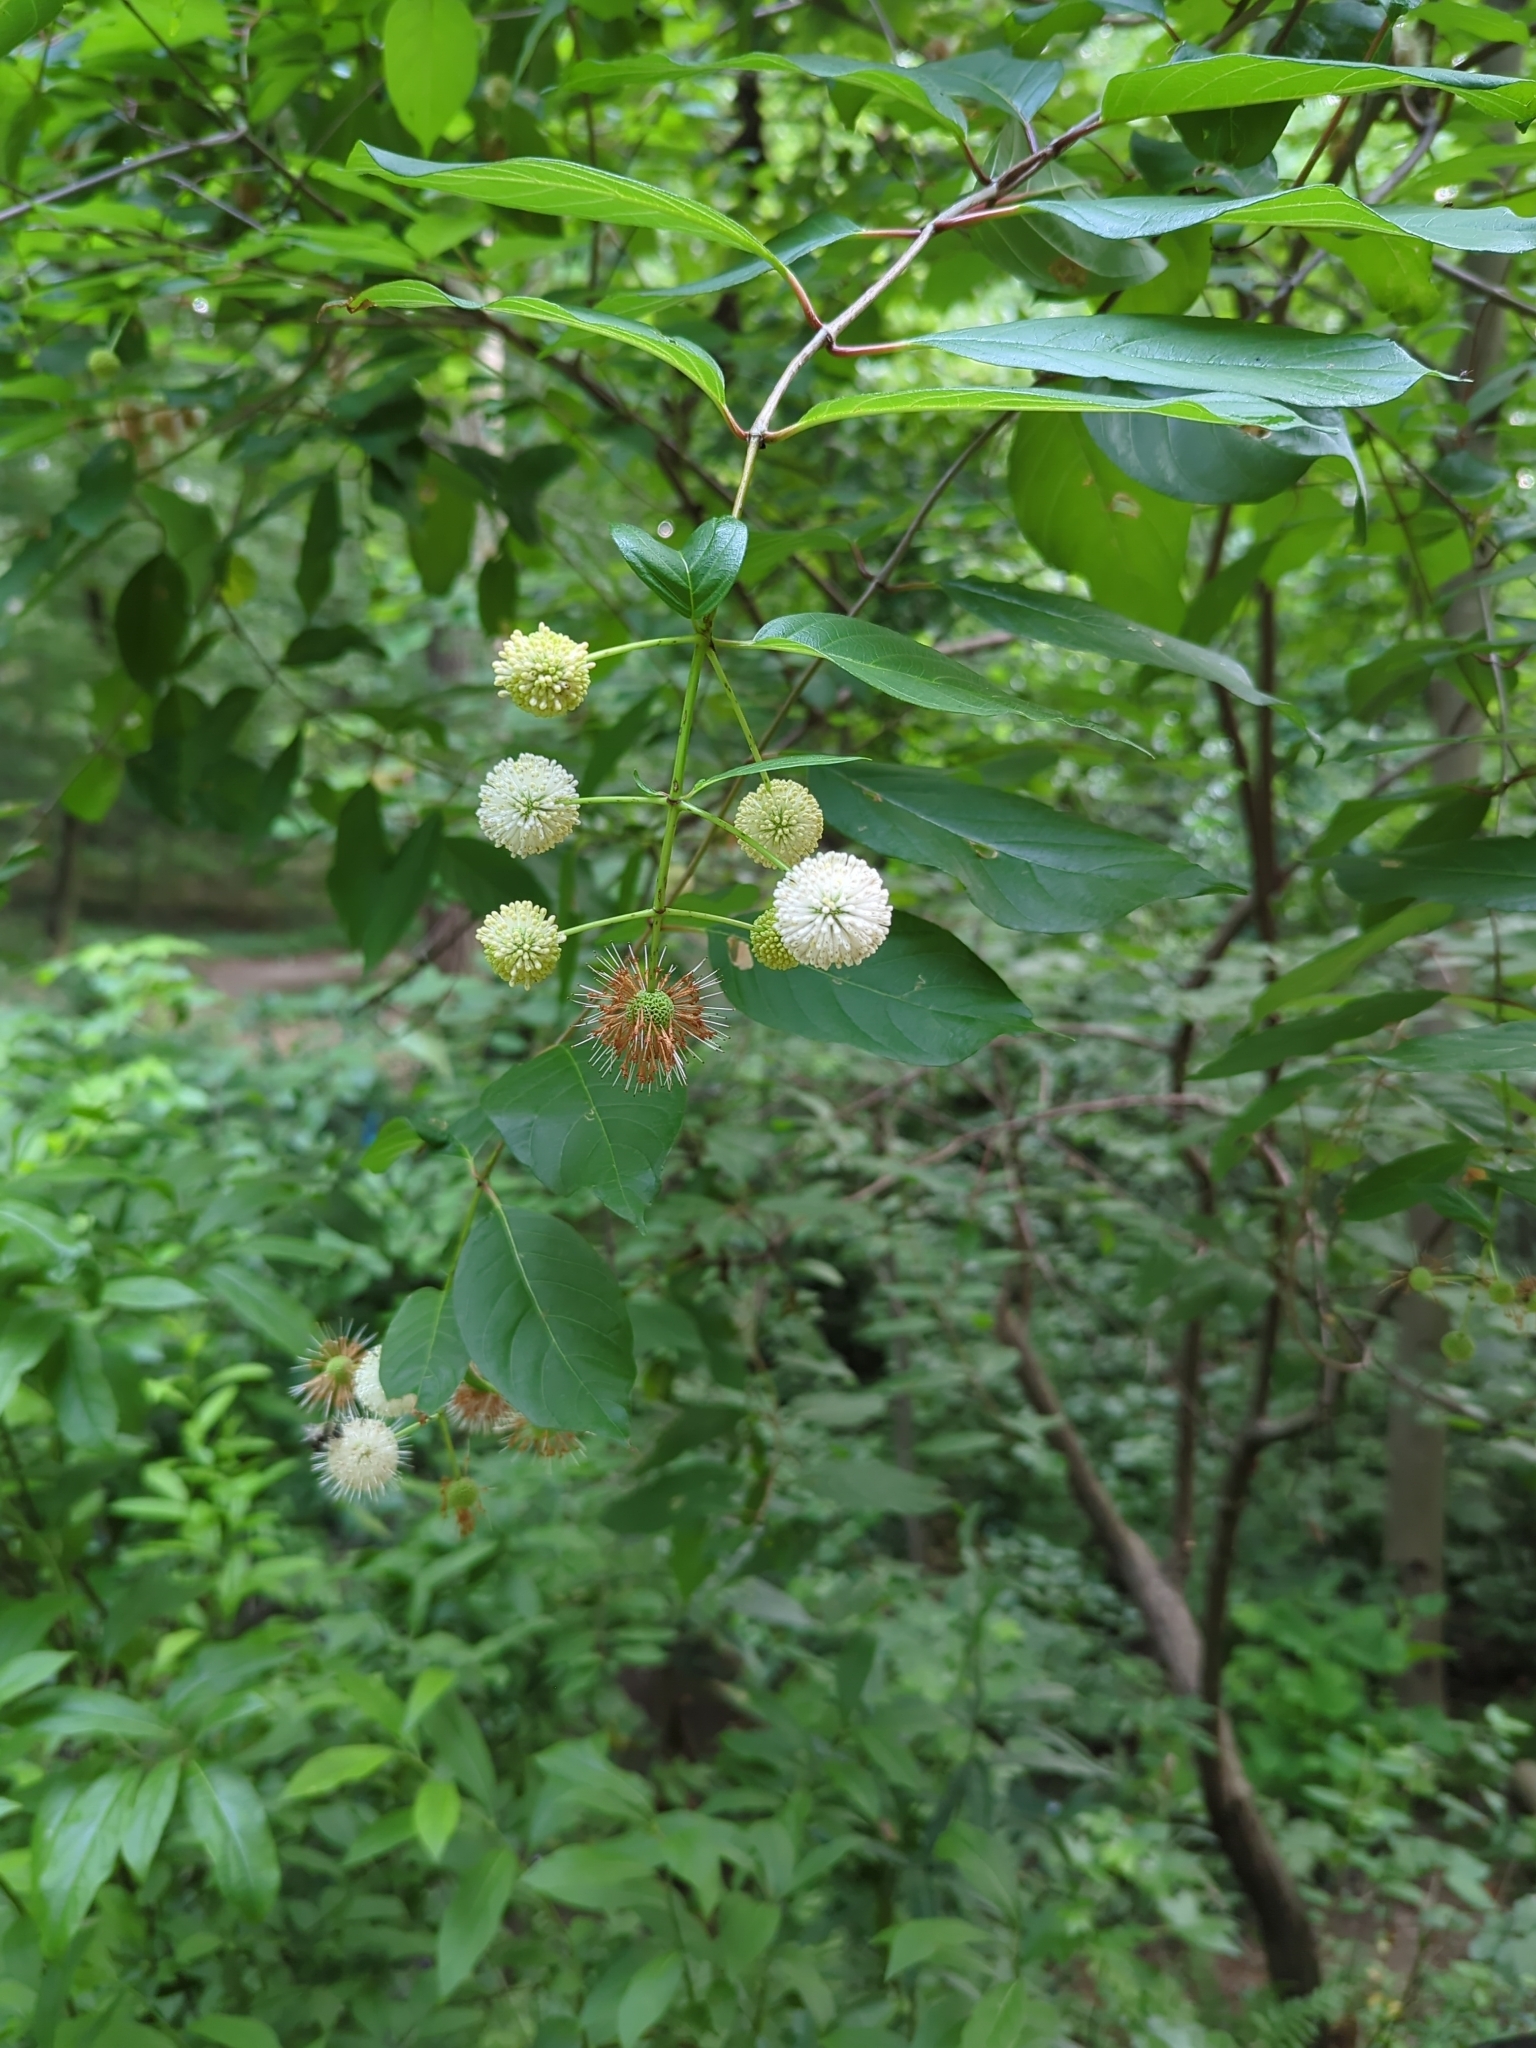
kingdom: Plantae
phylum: Tracheophyta
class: Magnoliopsida
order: Gentianales
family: Rubiaceae
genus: Cephalanthus
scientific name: Cephalanthus occidentalis
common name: Button-willow
